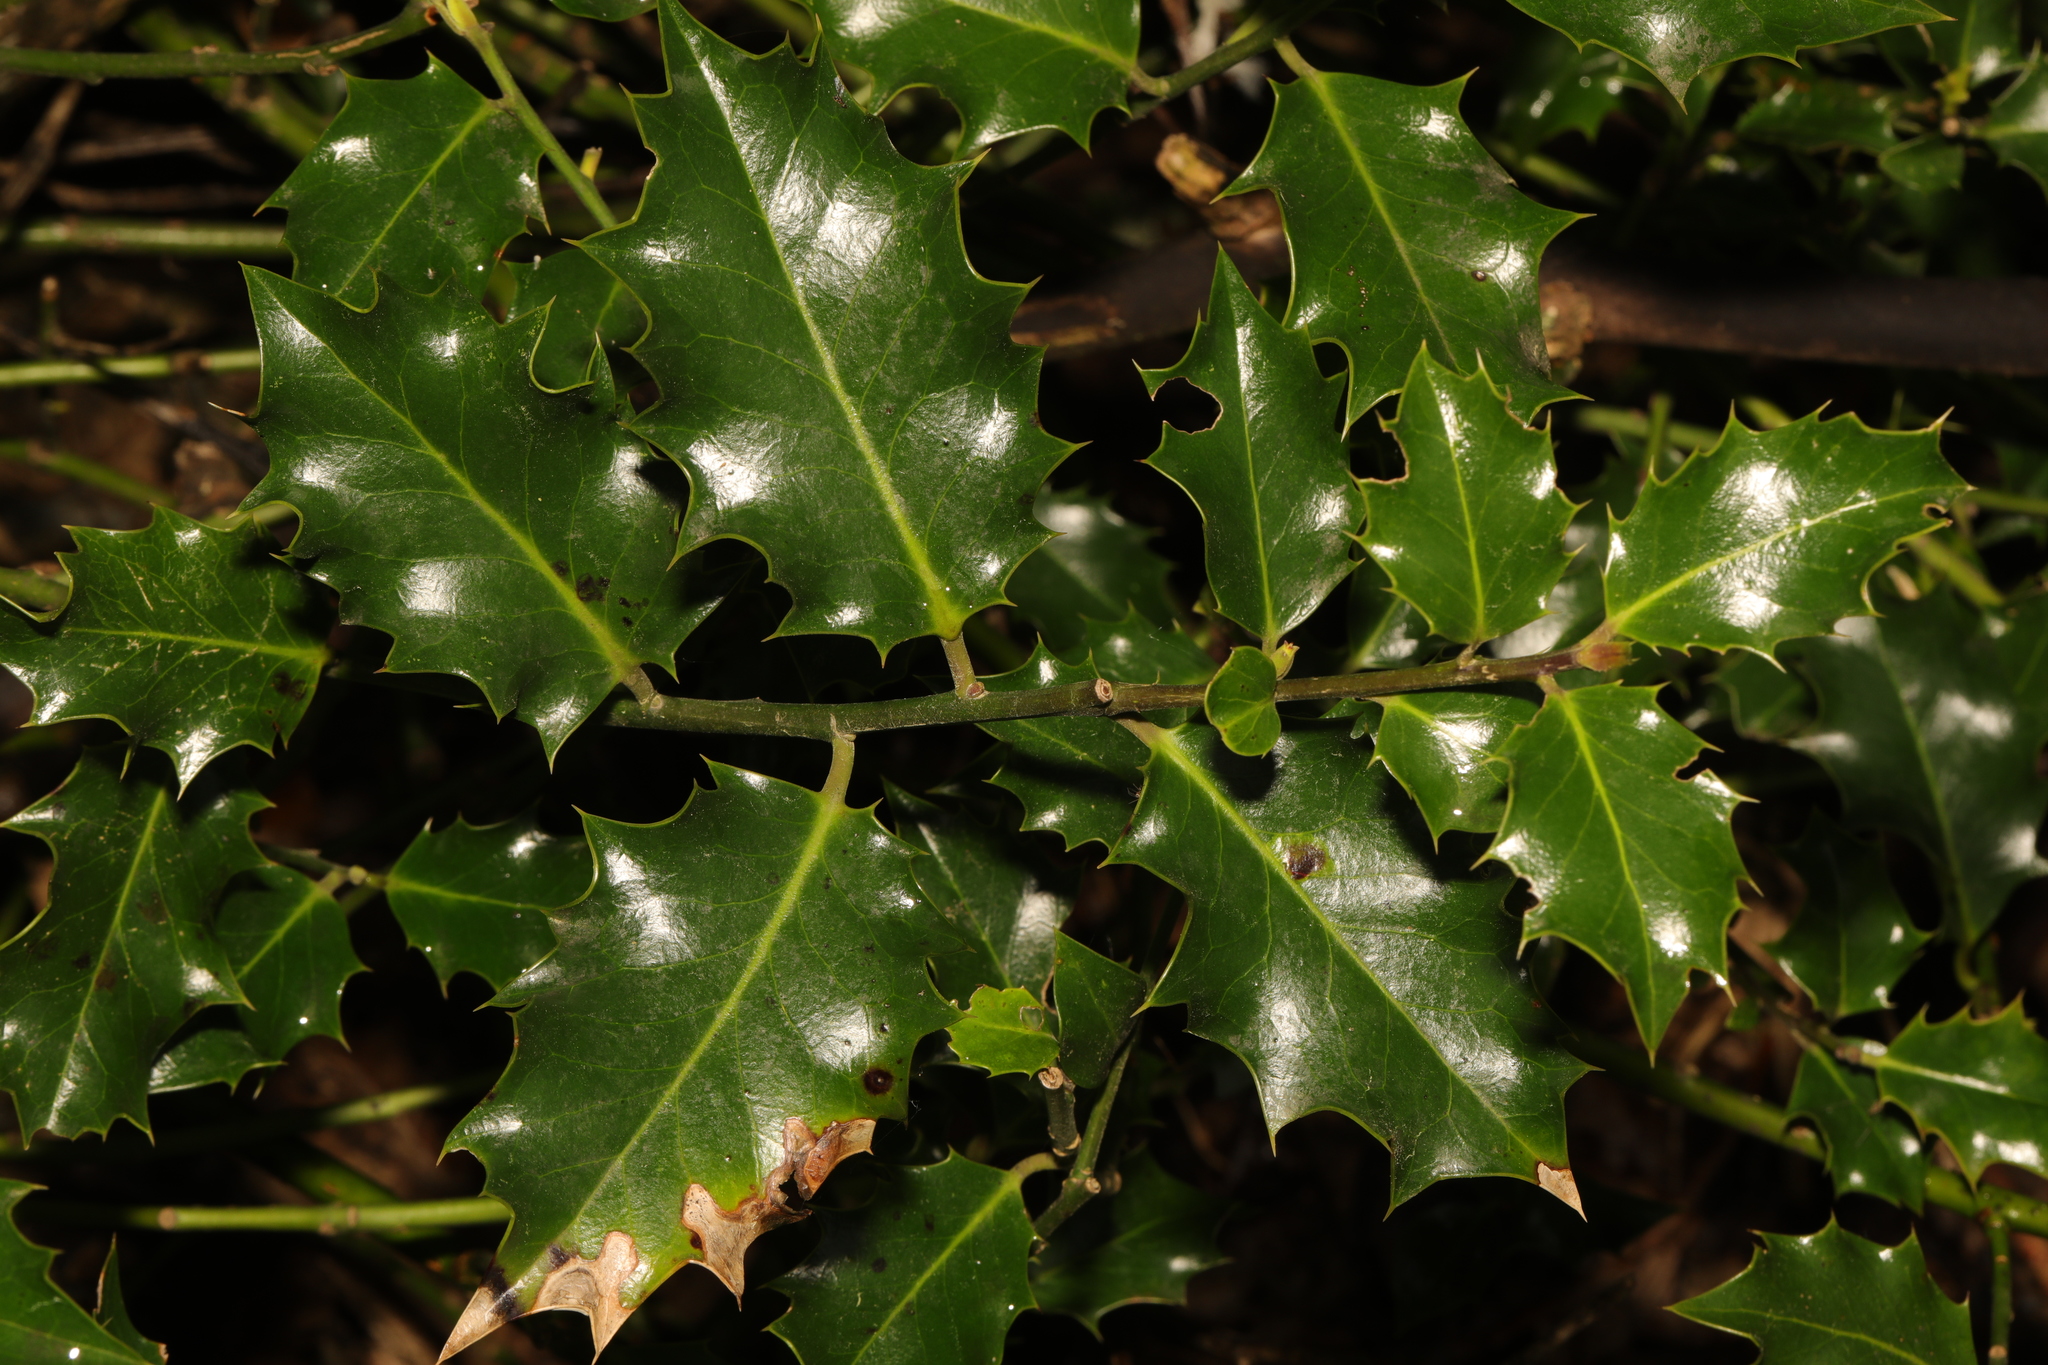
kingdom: Plantae
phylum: Tracheophyta
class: Magnoliopsida
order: Aquifoliales
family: Aquifoliaceae
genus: Ilex
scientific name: Ilex aquifolium
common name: English holly
